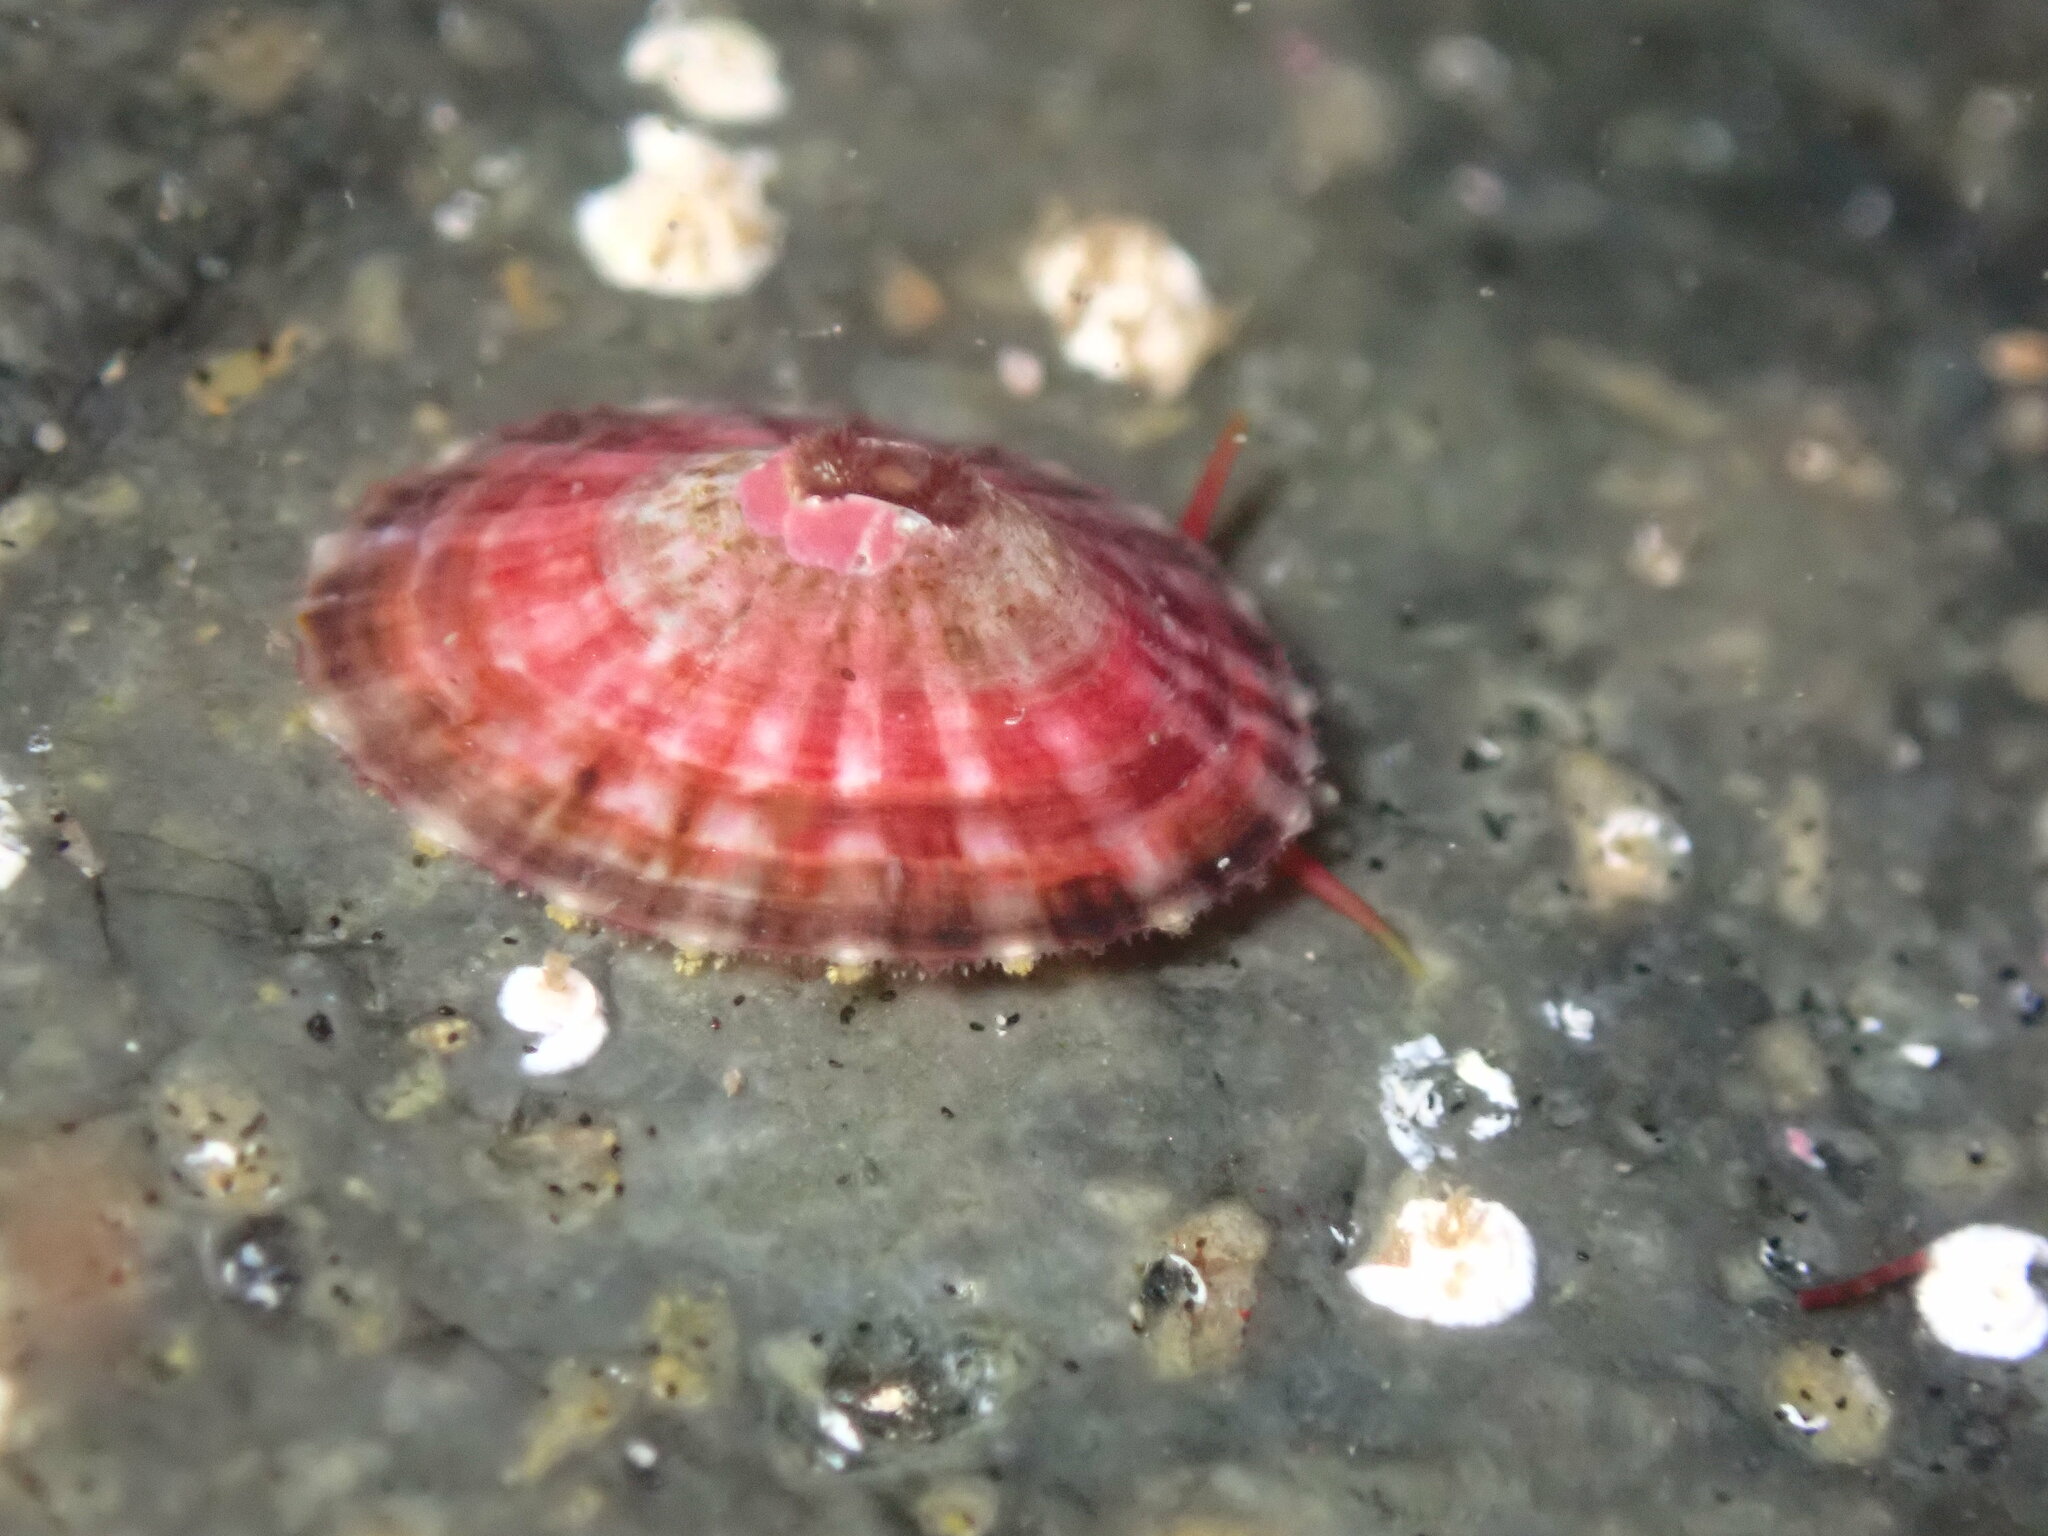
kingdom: Animalia
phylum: Mollusca
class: Gastropoda
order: Lepetellida
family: Fissurellidae
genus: Fissurella
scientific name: Fissurella volcano
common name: Volcano keyhole limpet
